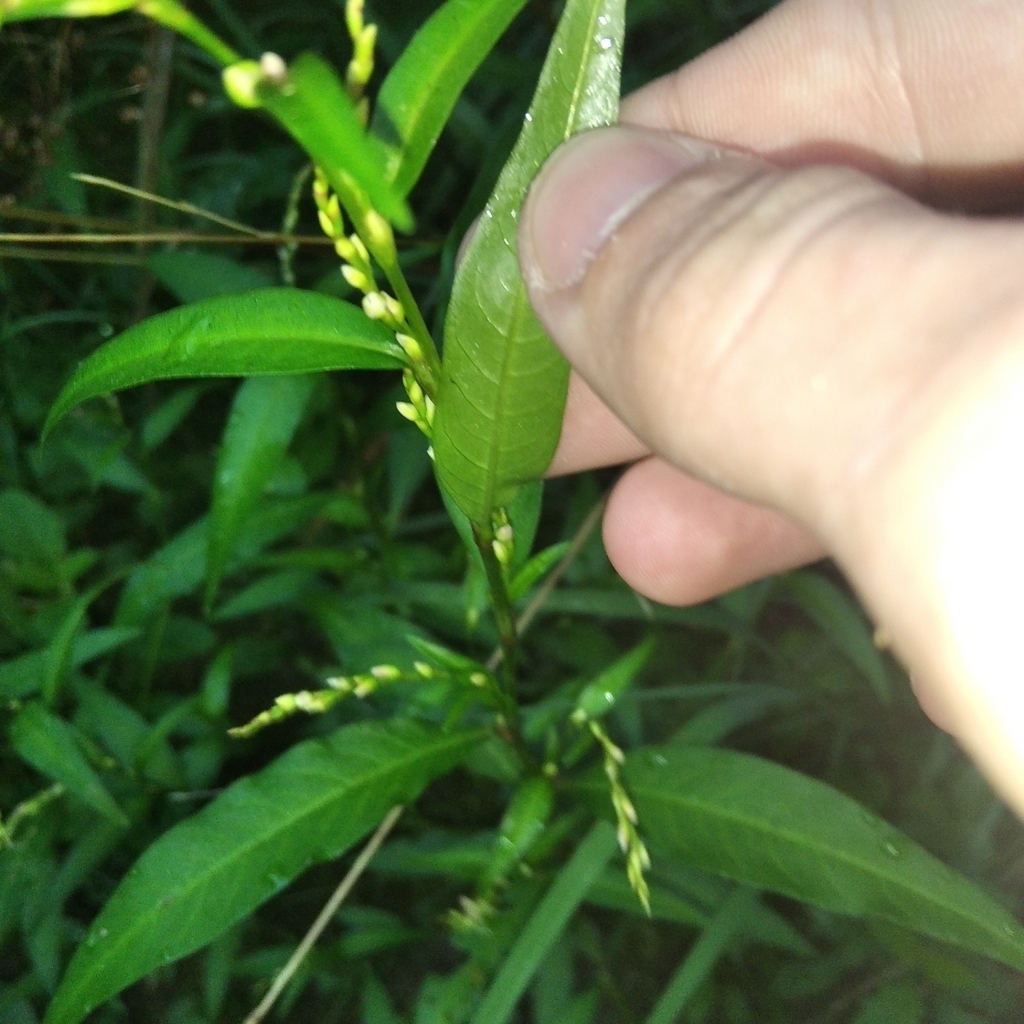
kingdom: Plantae
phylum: Tracheophyta
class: Magnoliopsida
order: Caryophyllales
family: Polygonaceae
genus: Persicaria
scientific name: Persicaria hydropiper
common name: Water-pepper
